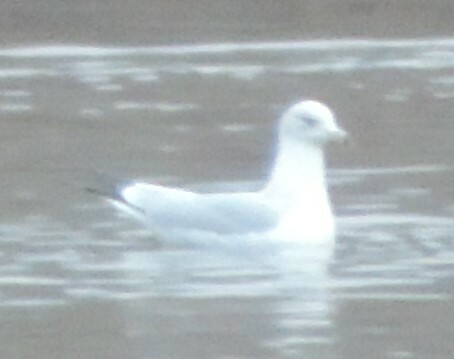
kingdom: Animalia
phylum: Chordata
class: Aves
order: Charadriiformes
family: Laridae
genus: Larus
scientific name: Larus delawarensis
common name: Ring-billed gull
